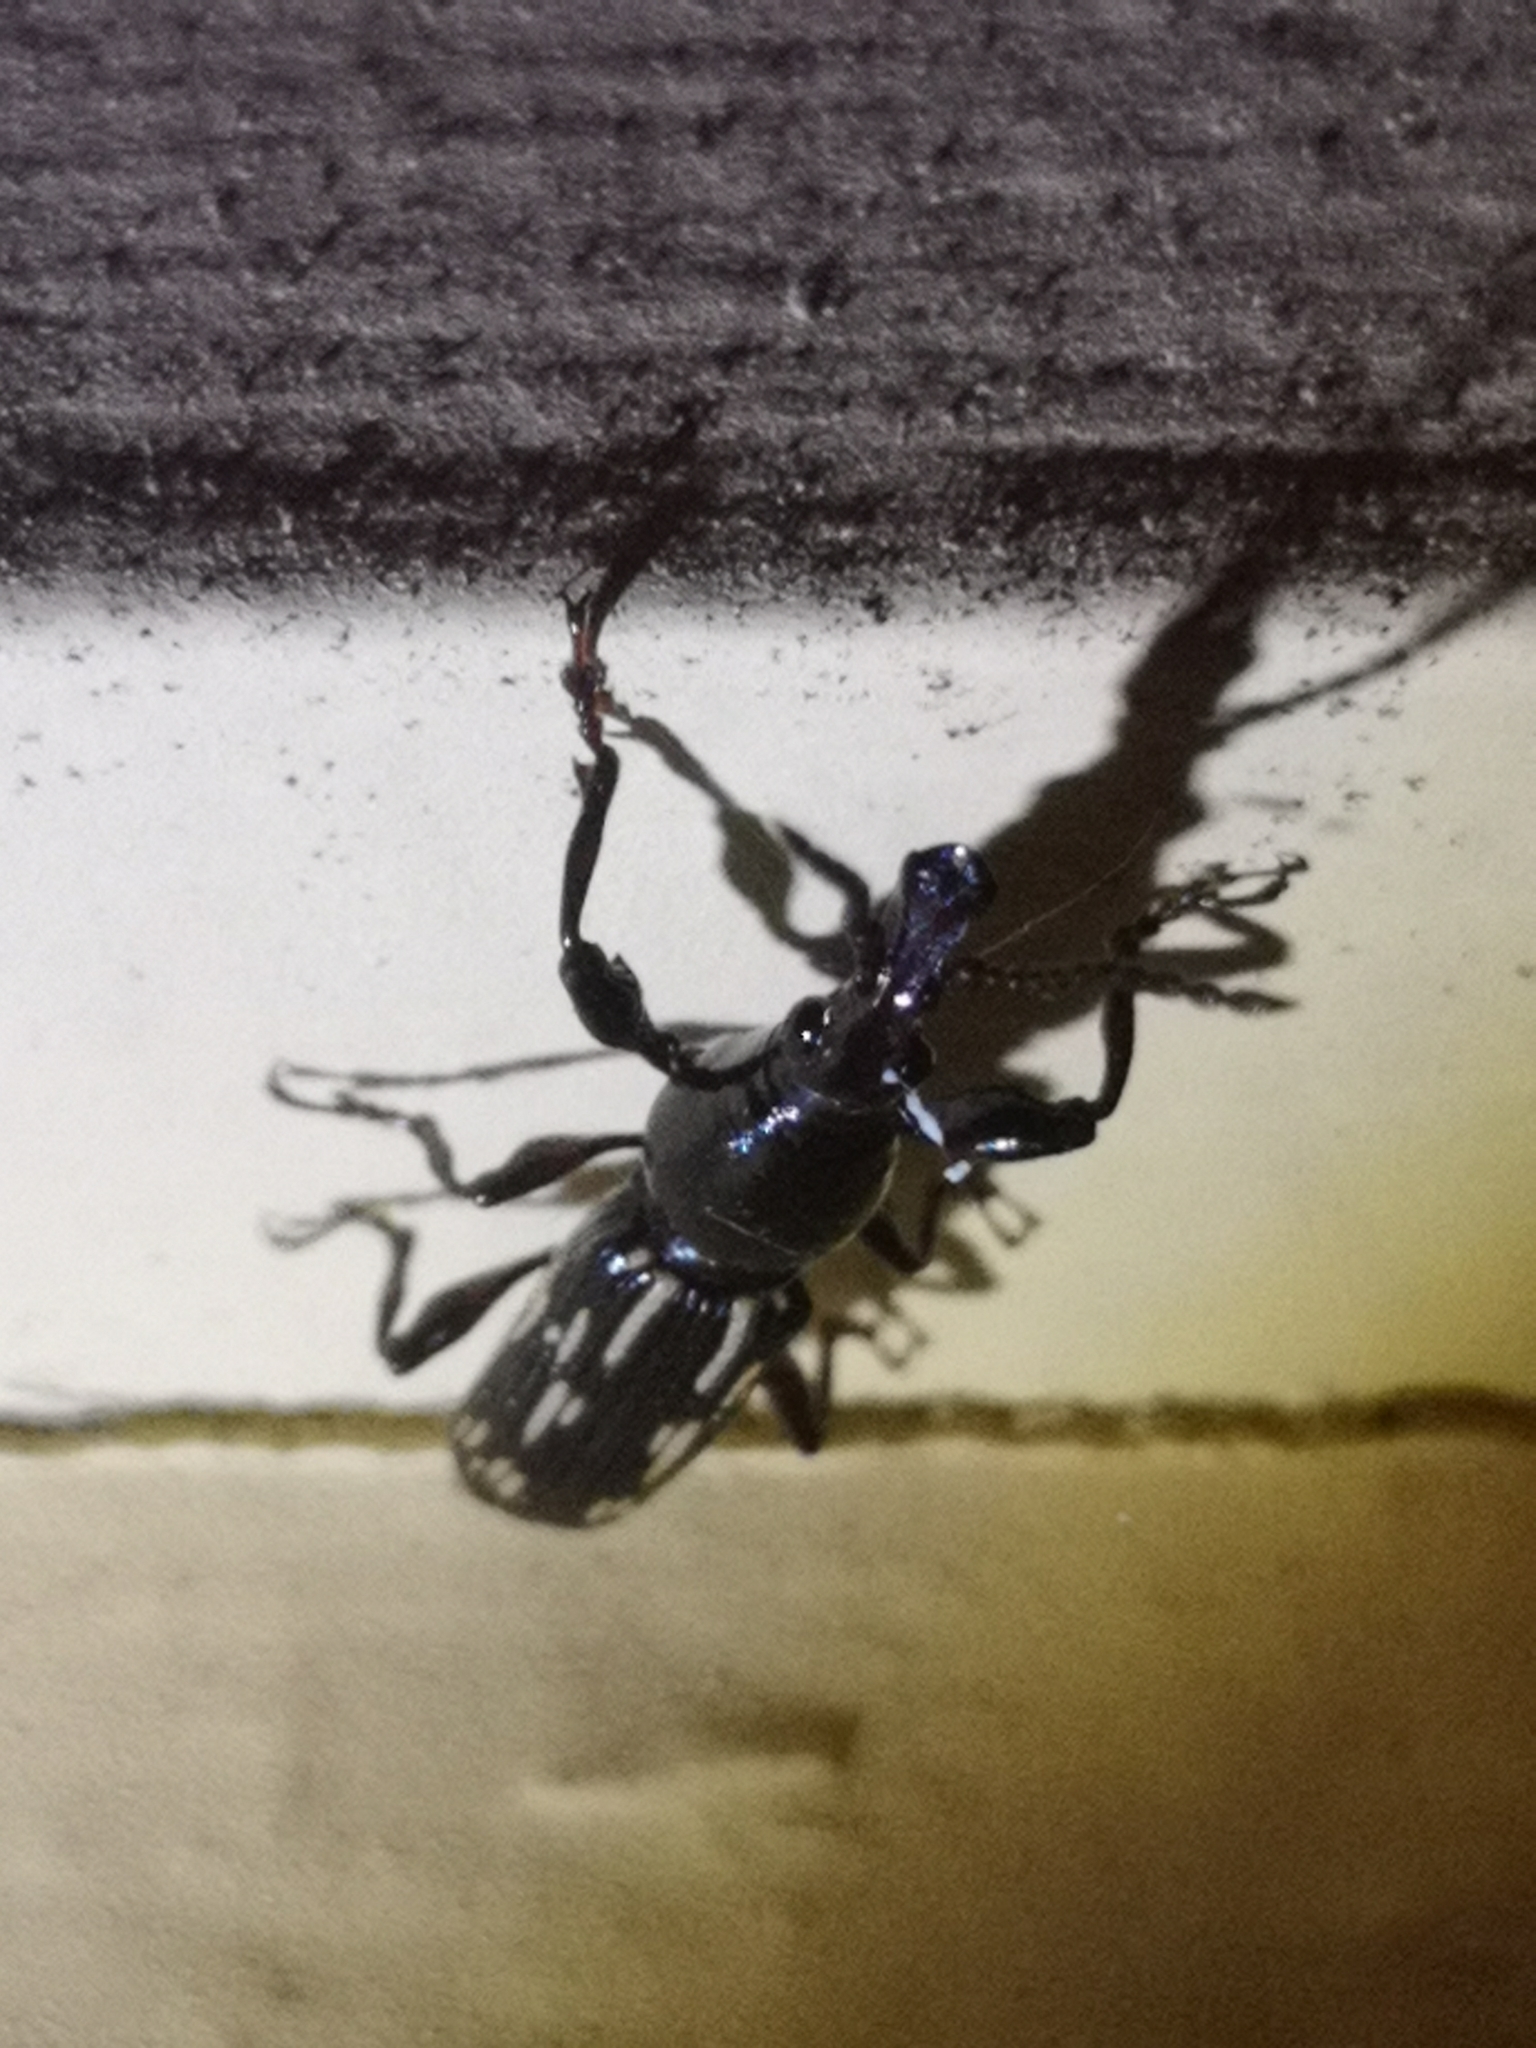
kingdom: Animalia
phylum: Arthropoda
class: Insecta
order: Coleoptera
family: Brentidae
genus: Arrenodes
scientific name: Arrenodes minutus
